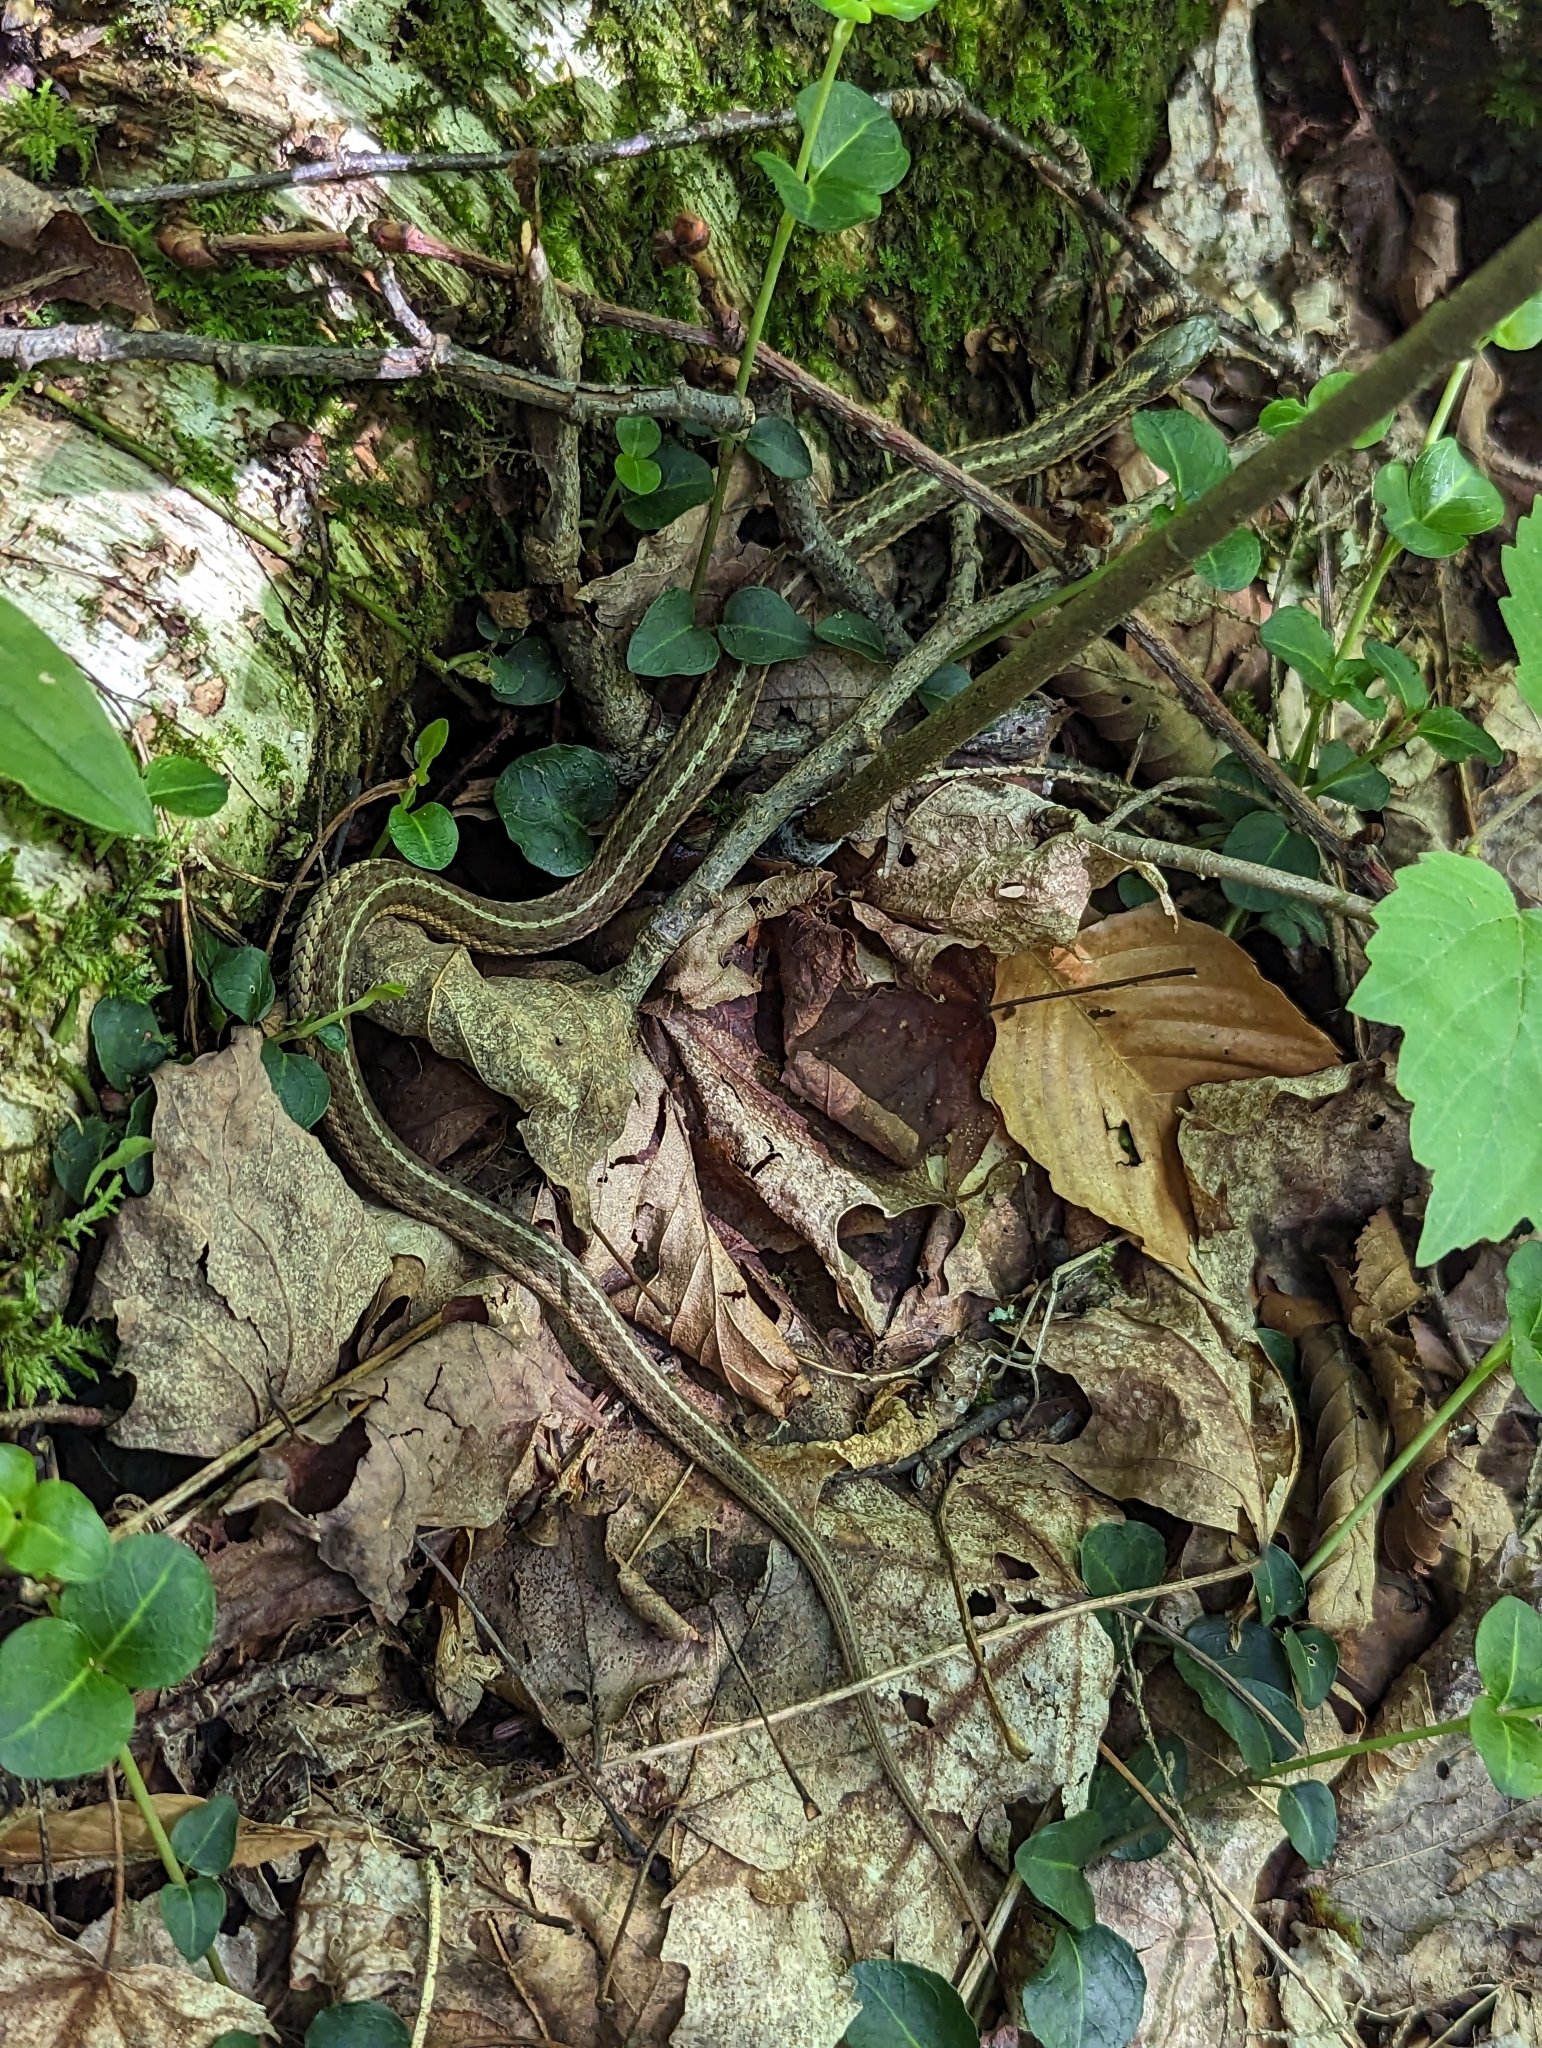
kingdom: Animalia
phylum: Chordata
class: Squamata
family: Colubridae
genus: Thamnophis
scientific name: Thamnophis sirtalis
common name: Common garter snake
